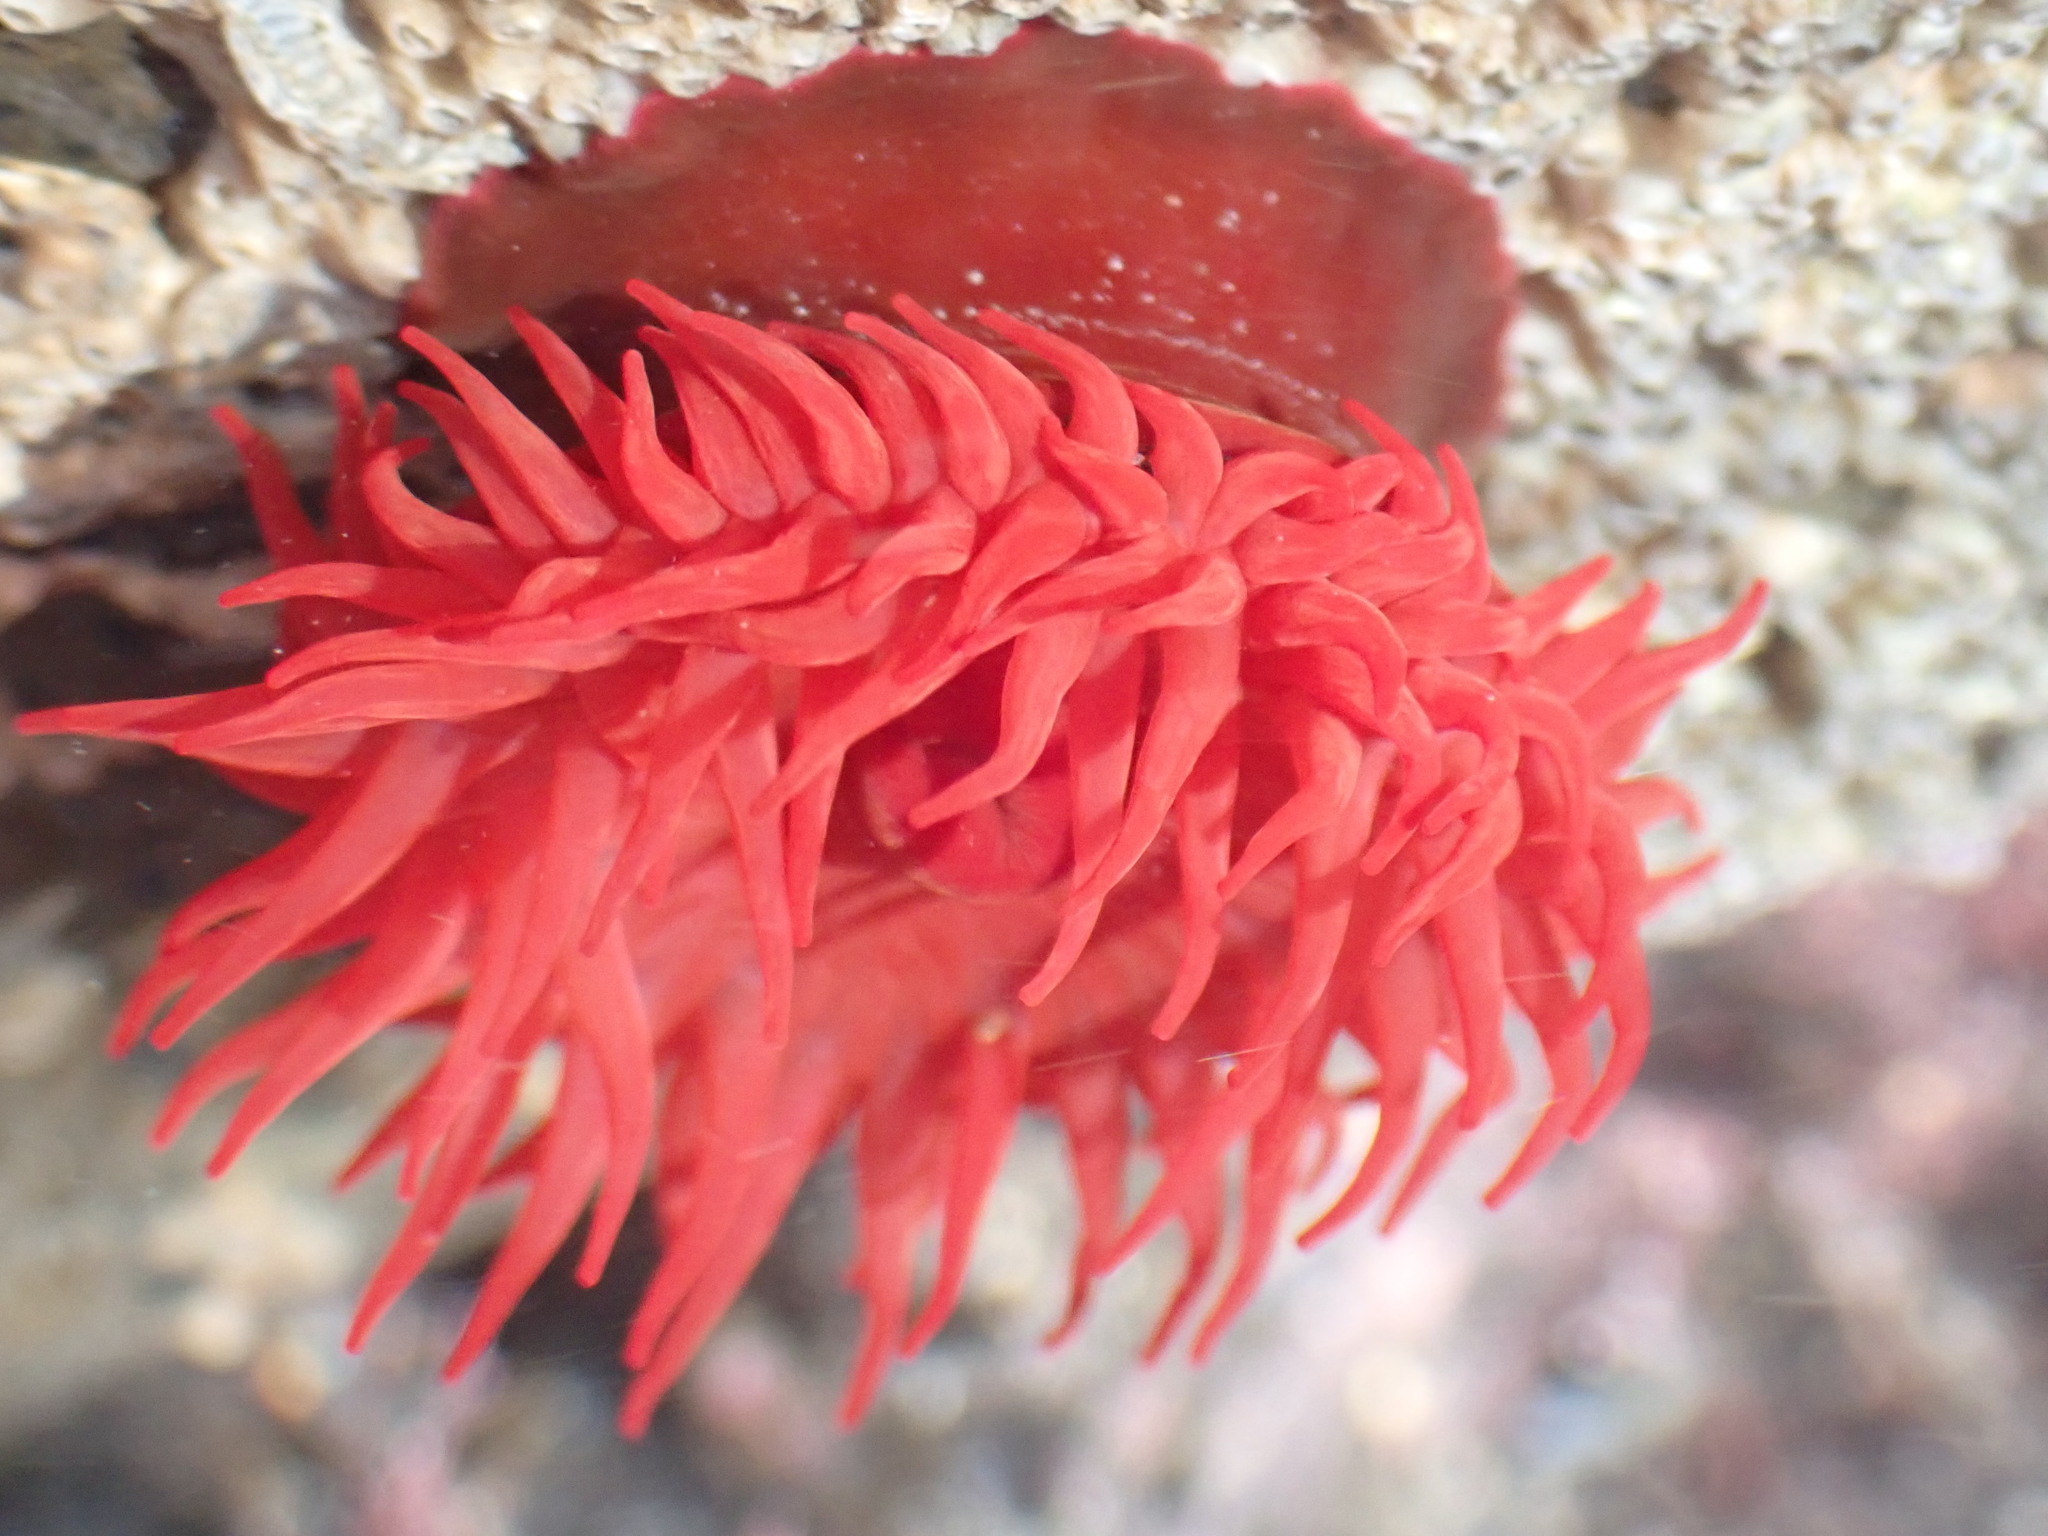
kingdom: Animalia
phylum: Cnidaria
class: Anthozoa
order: Actiniaria
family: Actiniidae
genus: Actinia
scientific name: Actinia tenebrosa
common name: Waratah anemone
